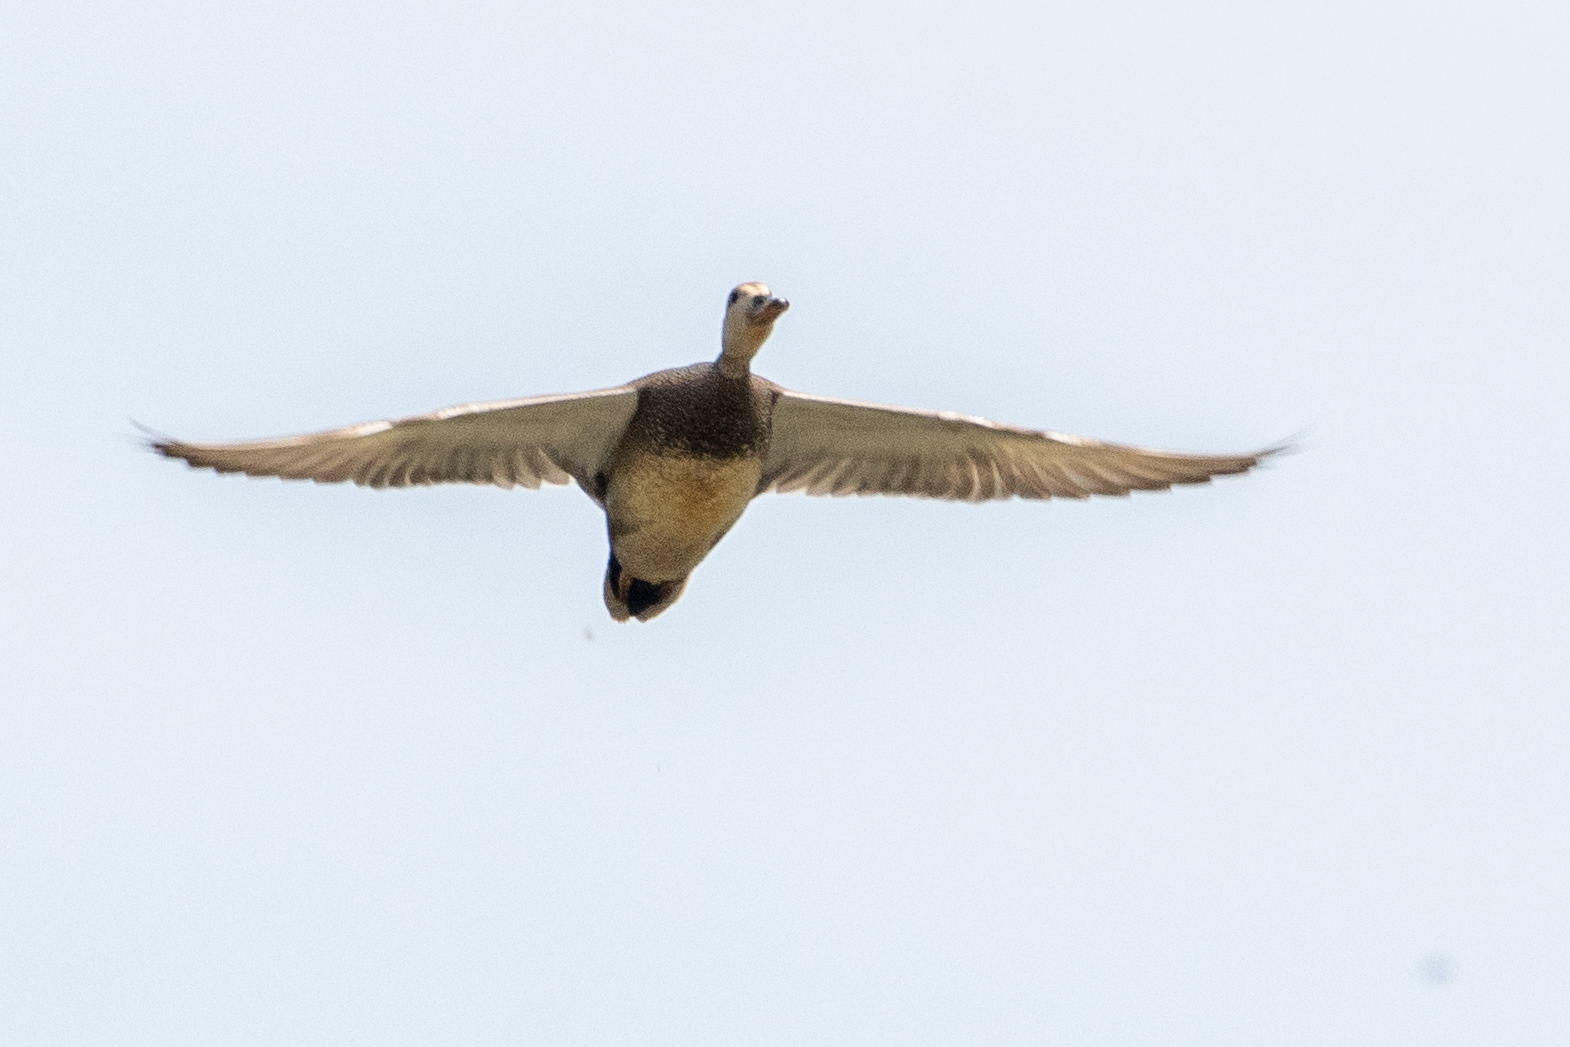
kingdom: Animalia
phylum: Chordata
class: Aves
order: Anseriformes
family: Anatidae
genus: Mareca
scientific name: Mareca strepera
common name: Gadwall
